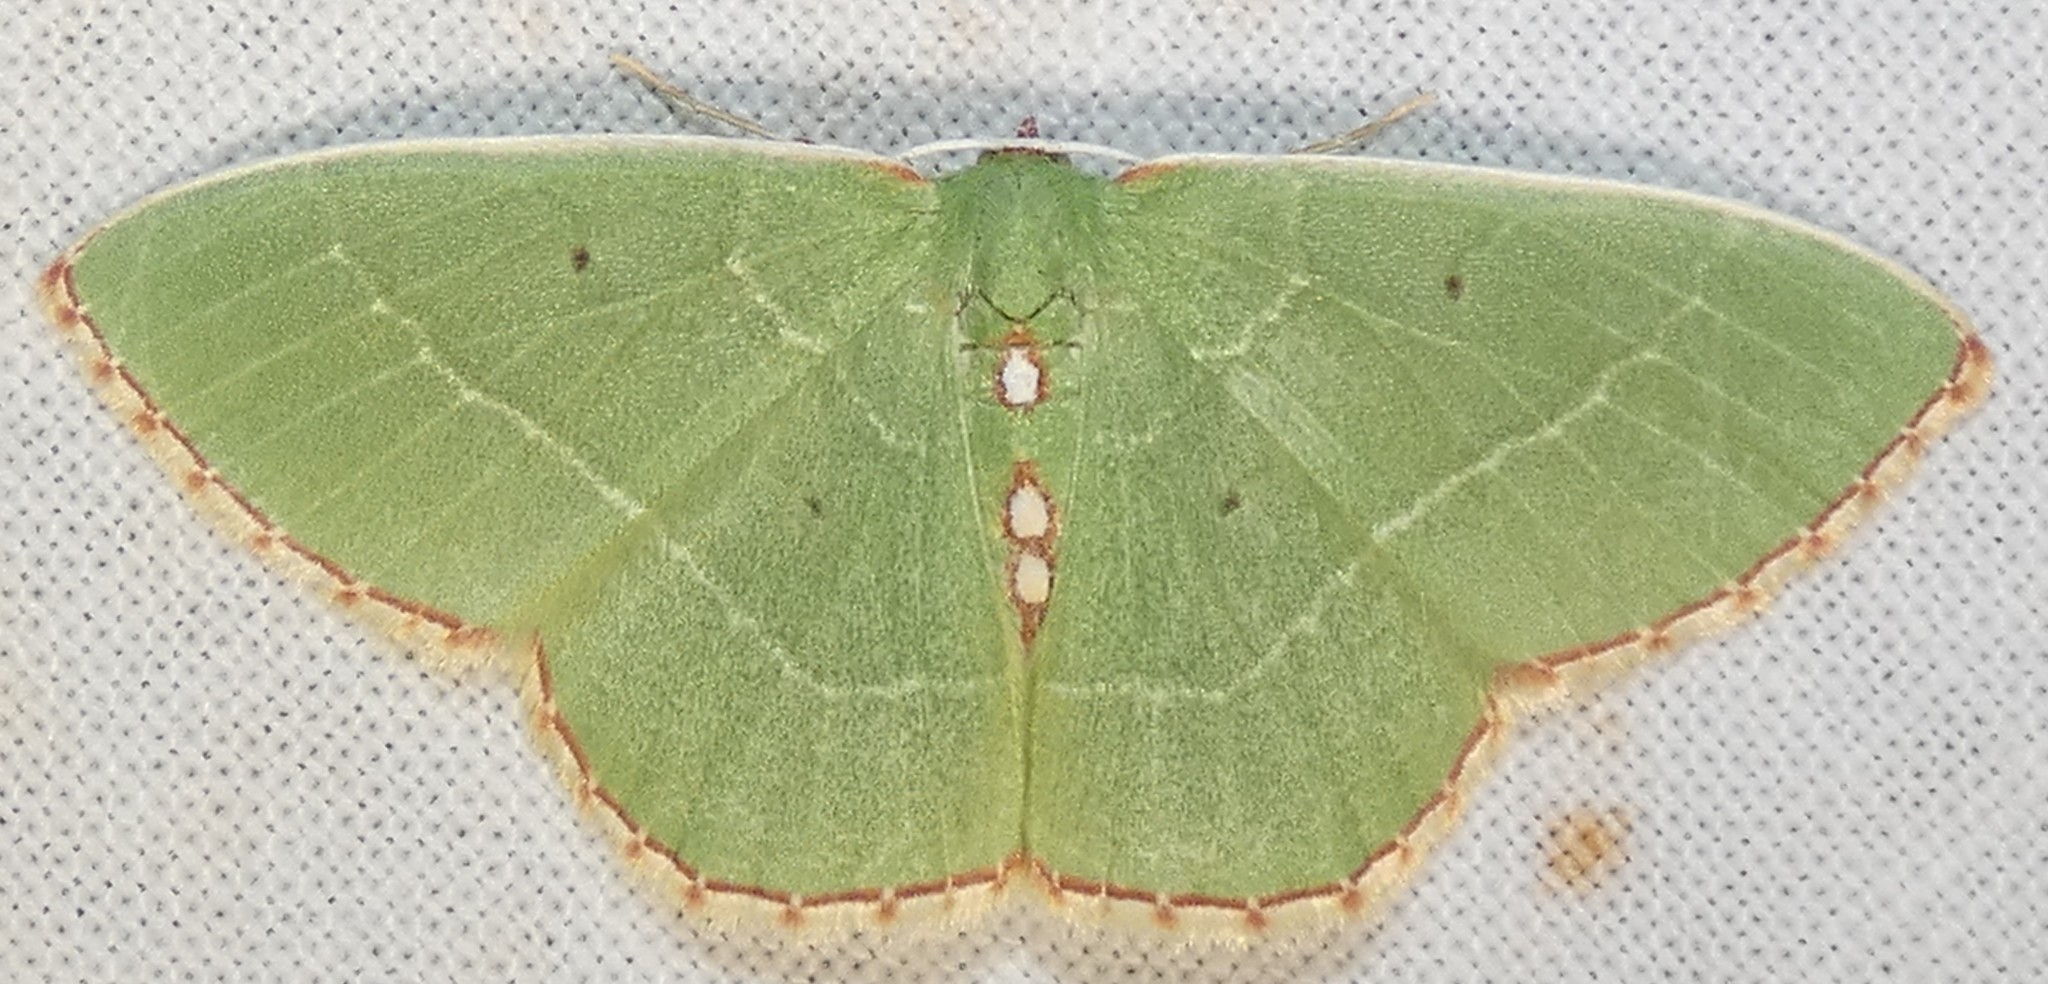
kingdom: Animalia
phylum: Arthropoda
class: Insecta
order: Lepidoptera
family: Geometridae
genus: Nemoria
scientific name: Nemoria lixaria
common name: Red-bordered emerald
